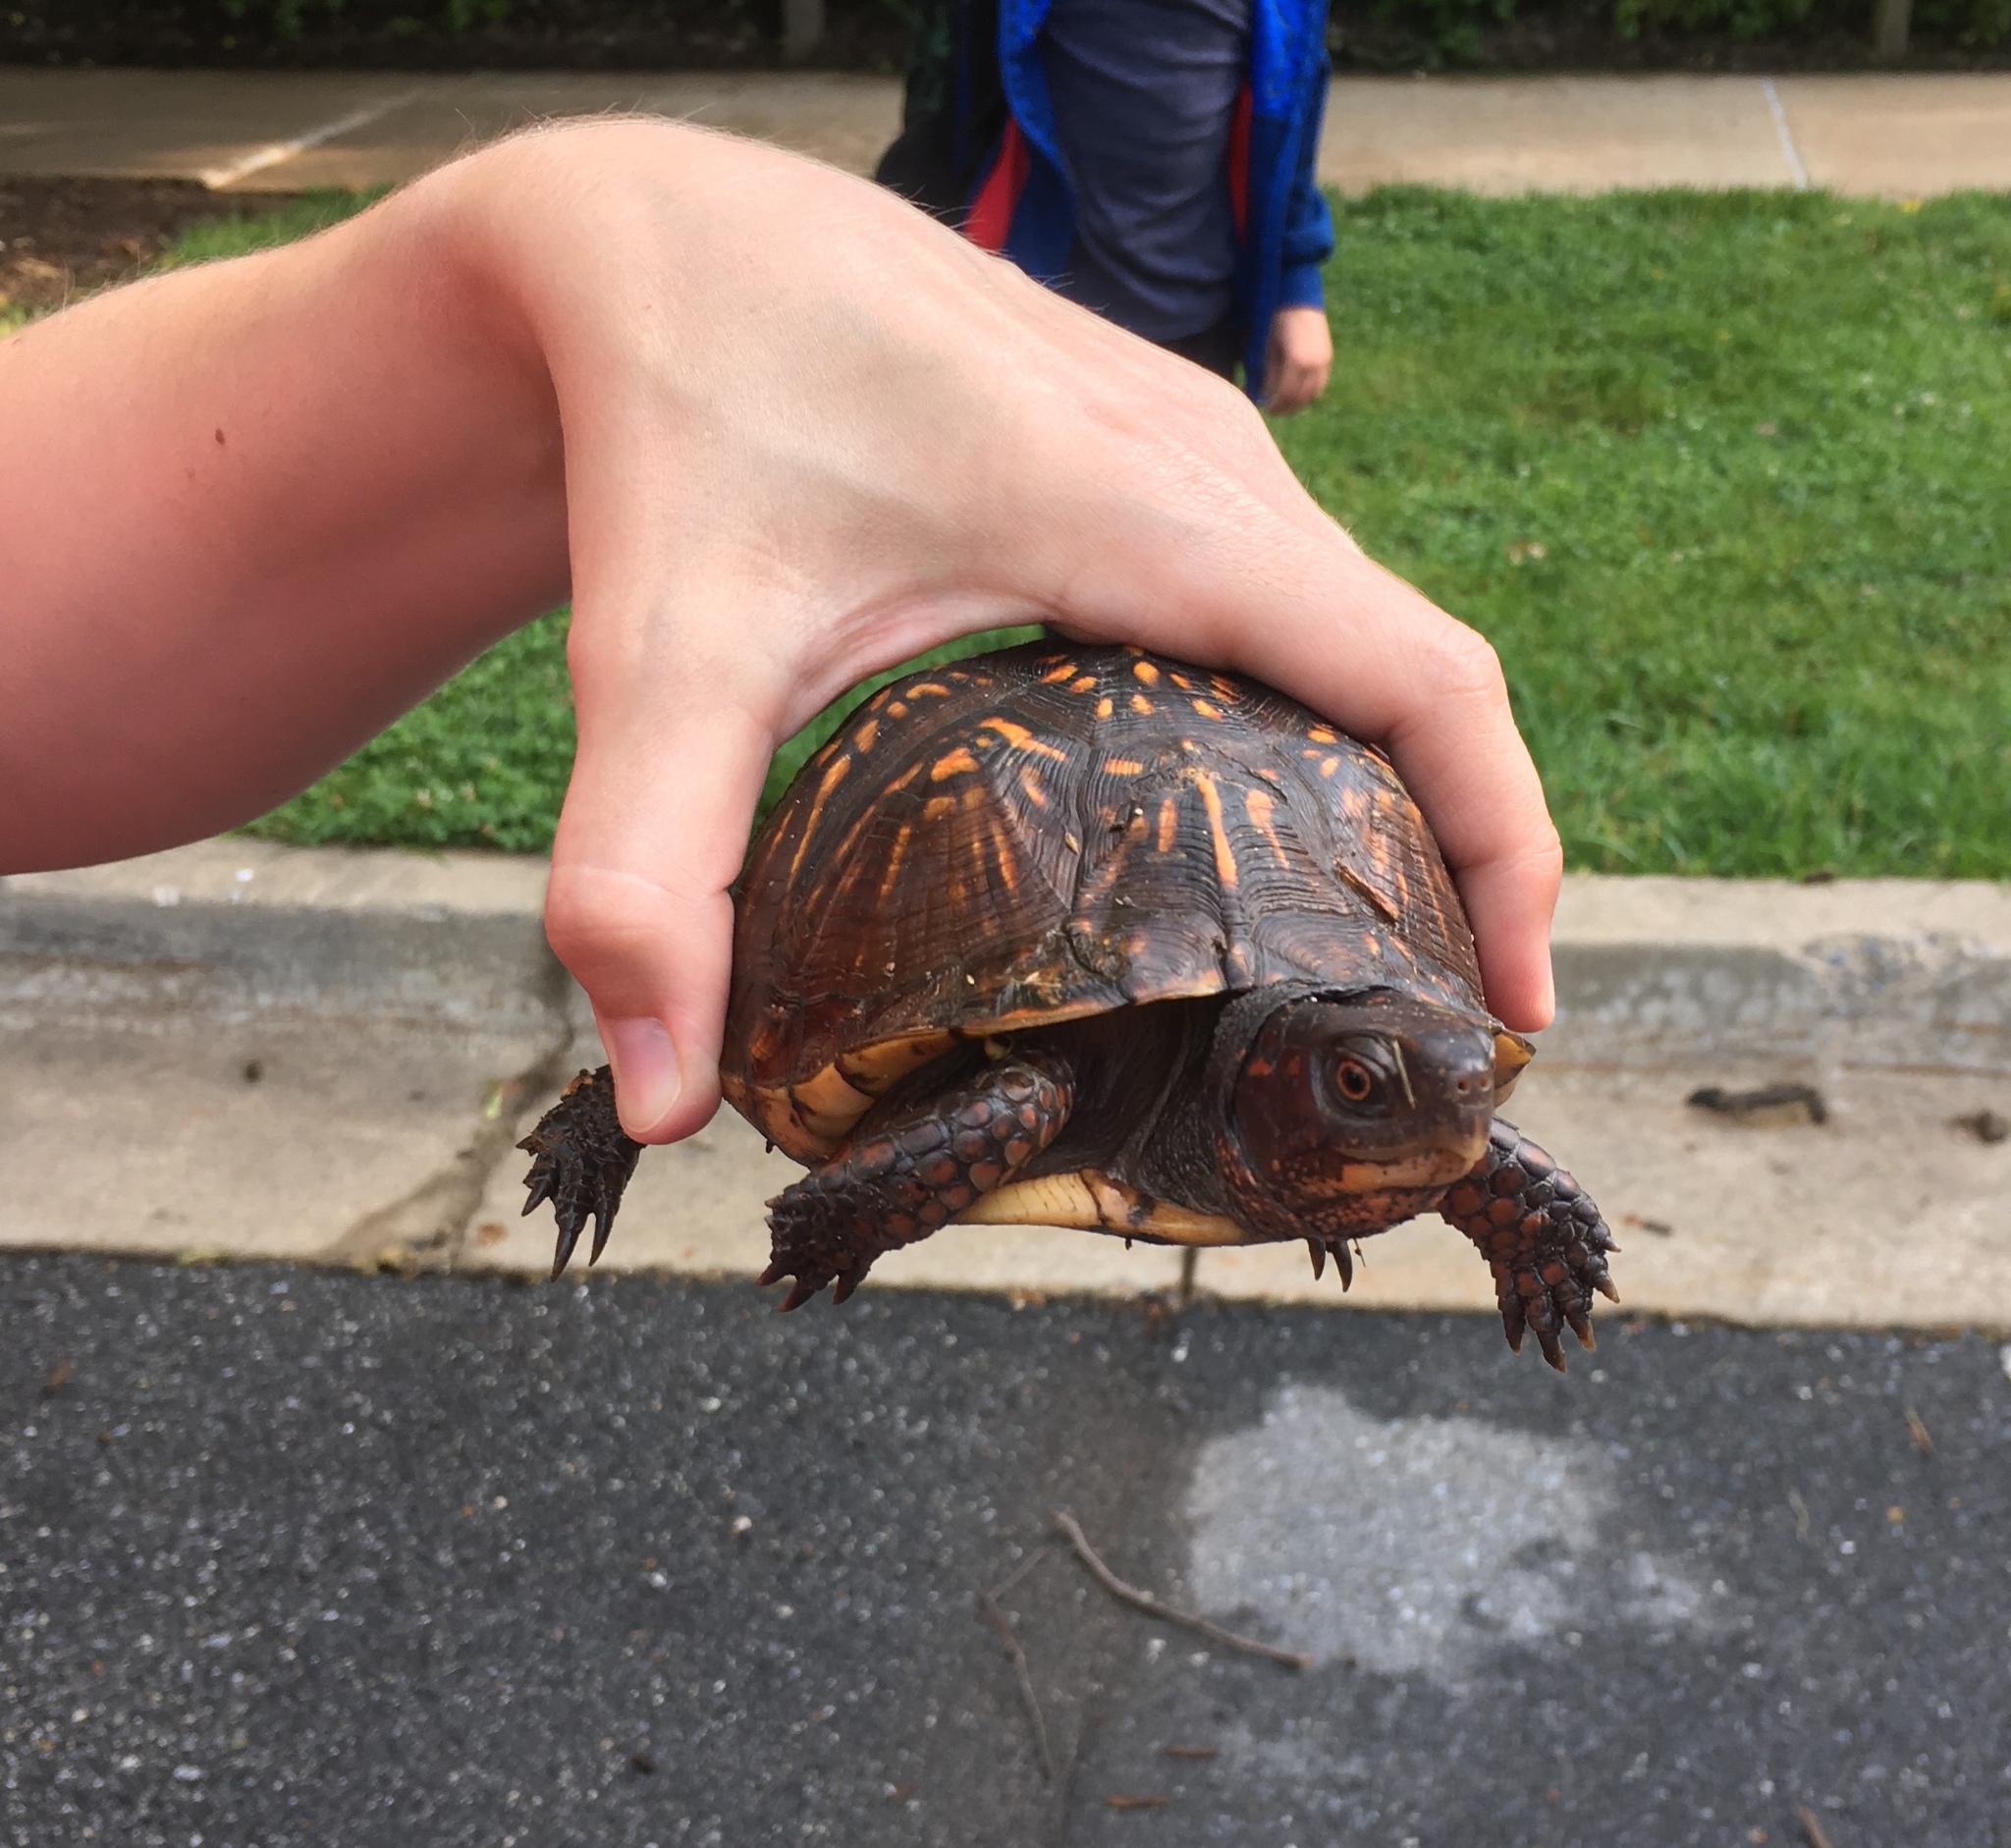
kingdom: Animalia
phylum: Chordata
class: Testudines
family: Emydidae
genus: Terrapene
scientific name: Terrapene carolina
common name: Common box turtle
